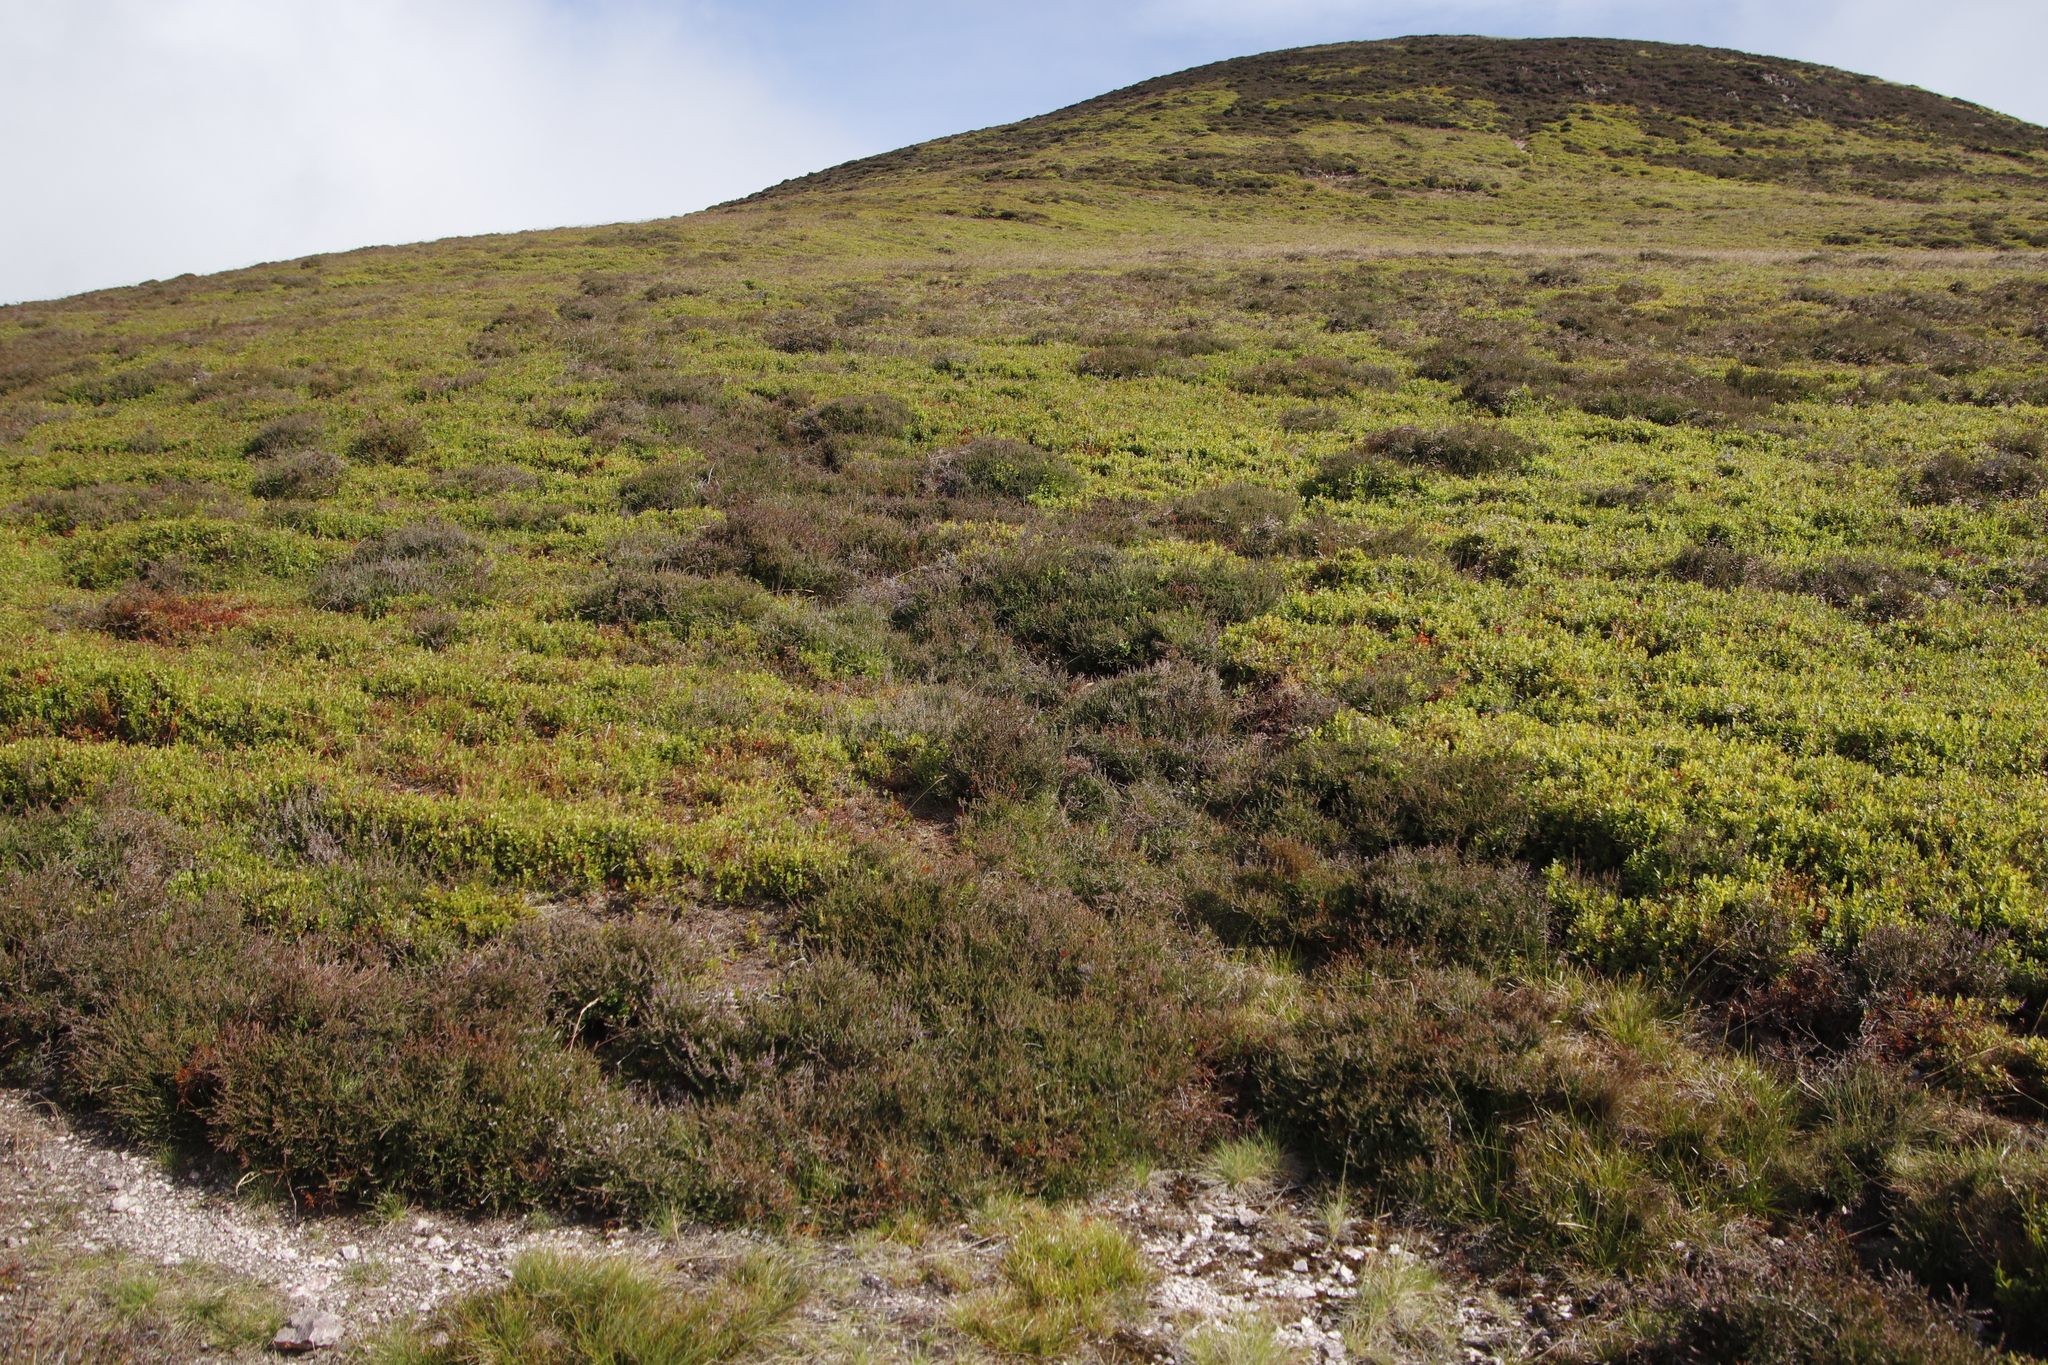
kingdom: Plantae
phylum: Tracheophyta
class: Magnoliopsida
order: Ericales
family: Ericaceae
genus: Calluna
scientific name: Calluna vulgaris
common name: Heather
